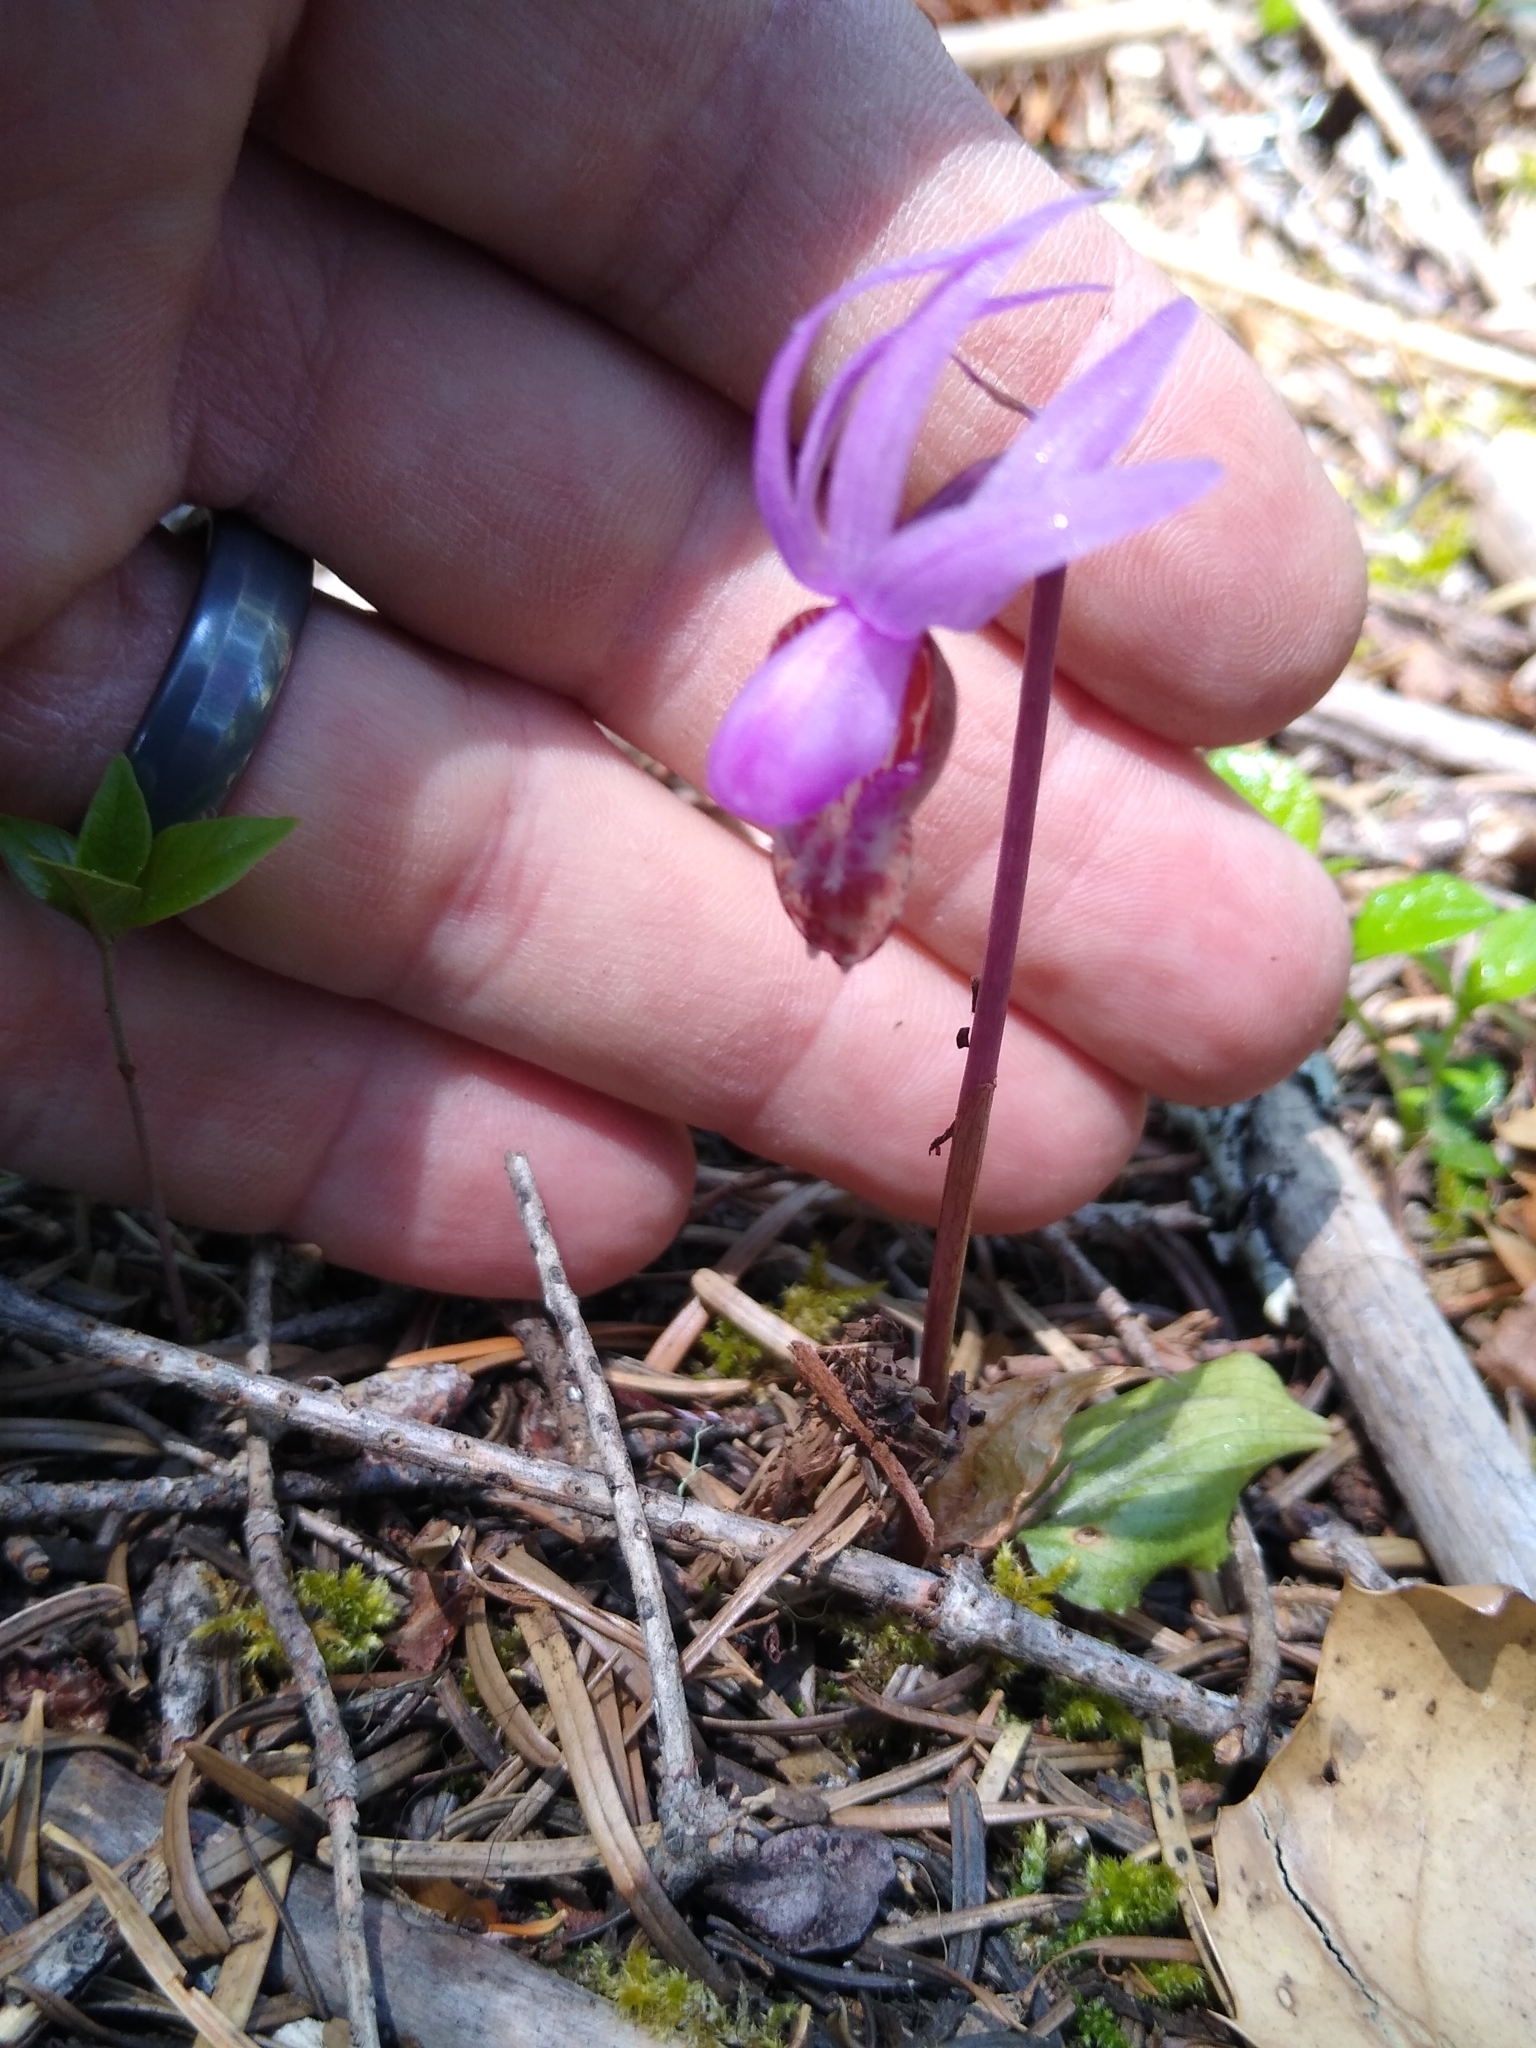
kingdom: Plantae
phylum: Tracheophyta
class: Liliopsida
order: Asparagales
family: Orchidaceae
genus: Calypso
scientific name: Calypso bulbosa
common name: Calypso
